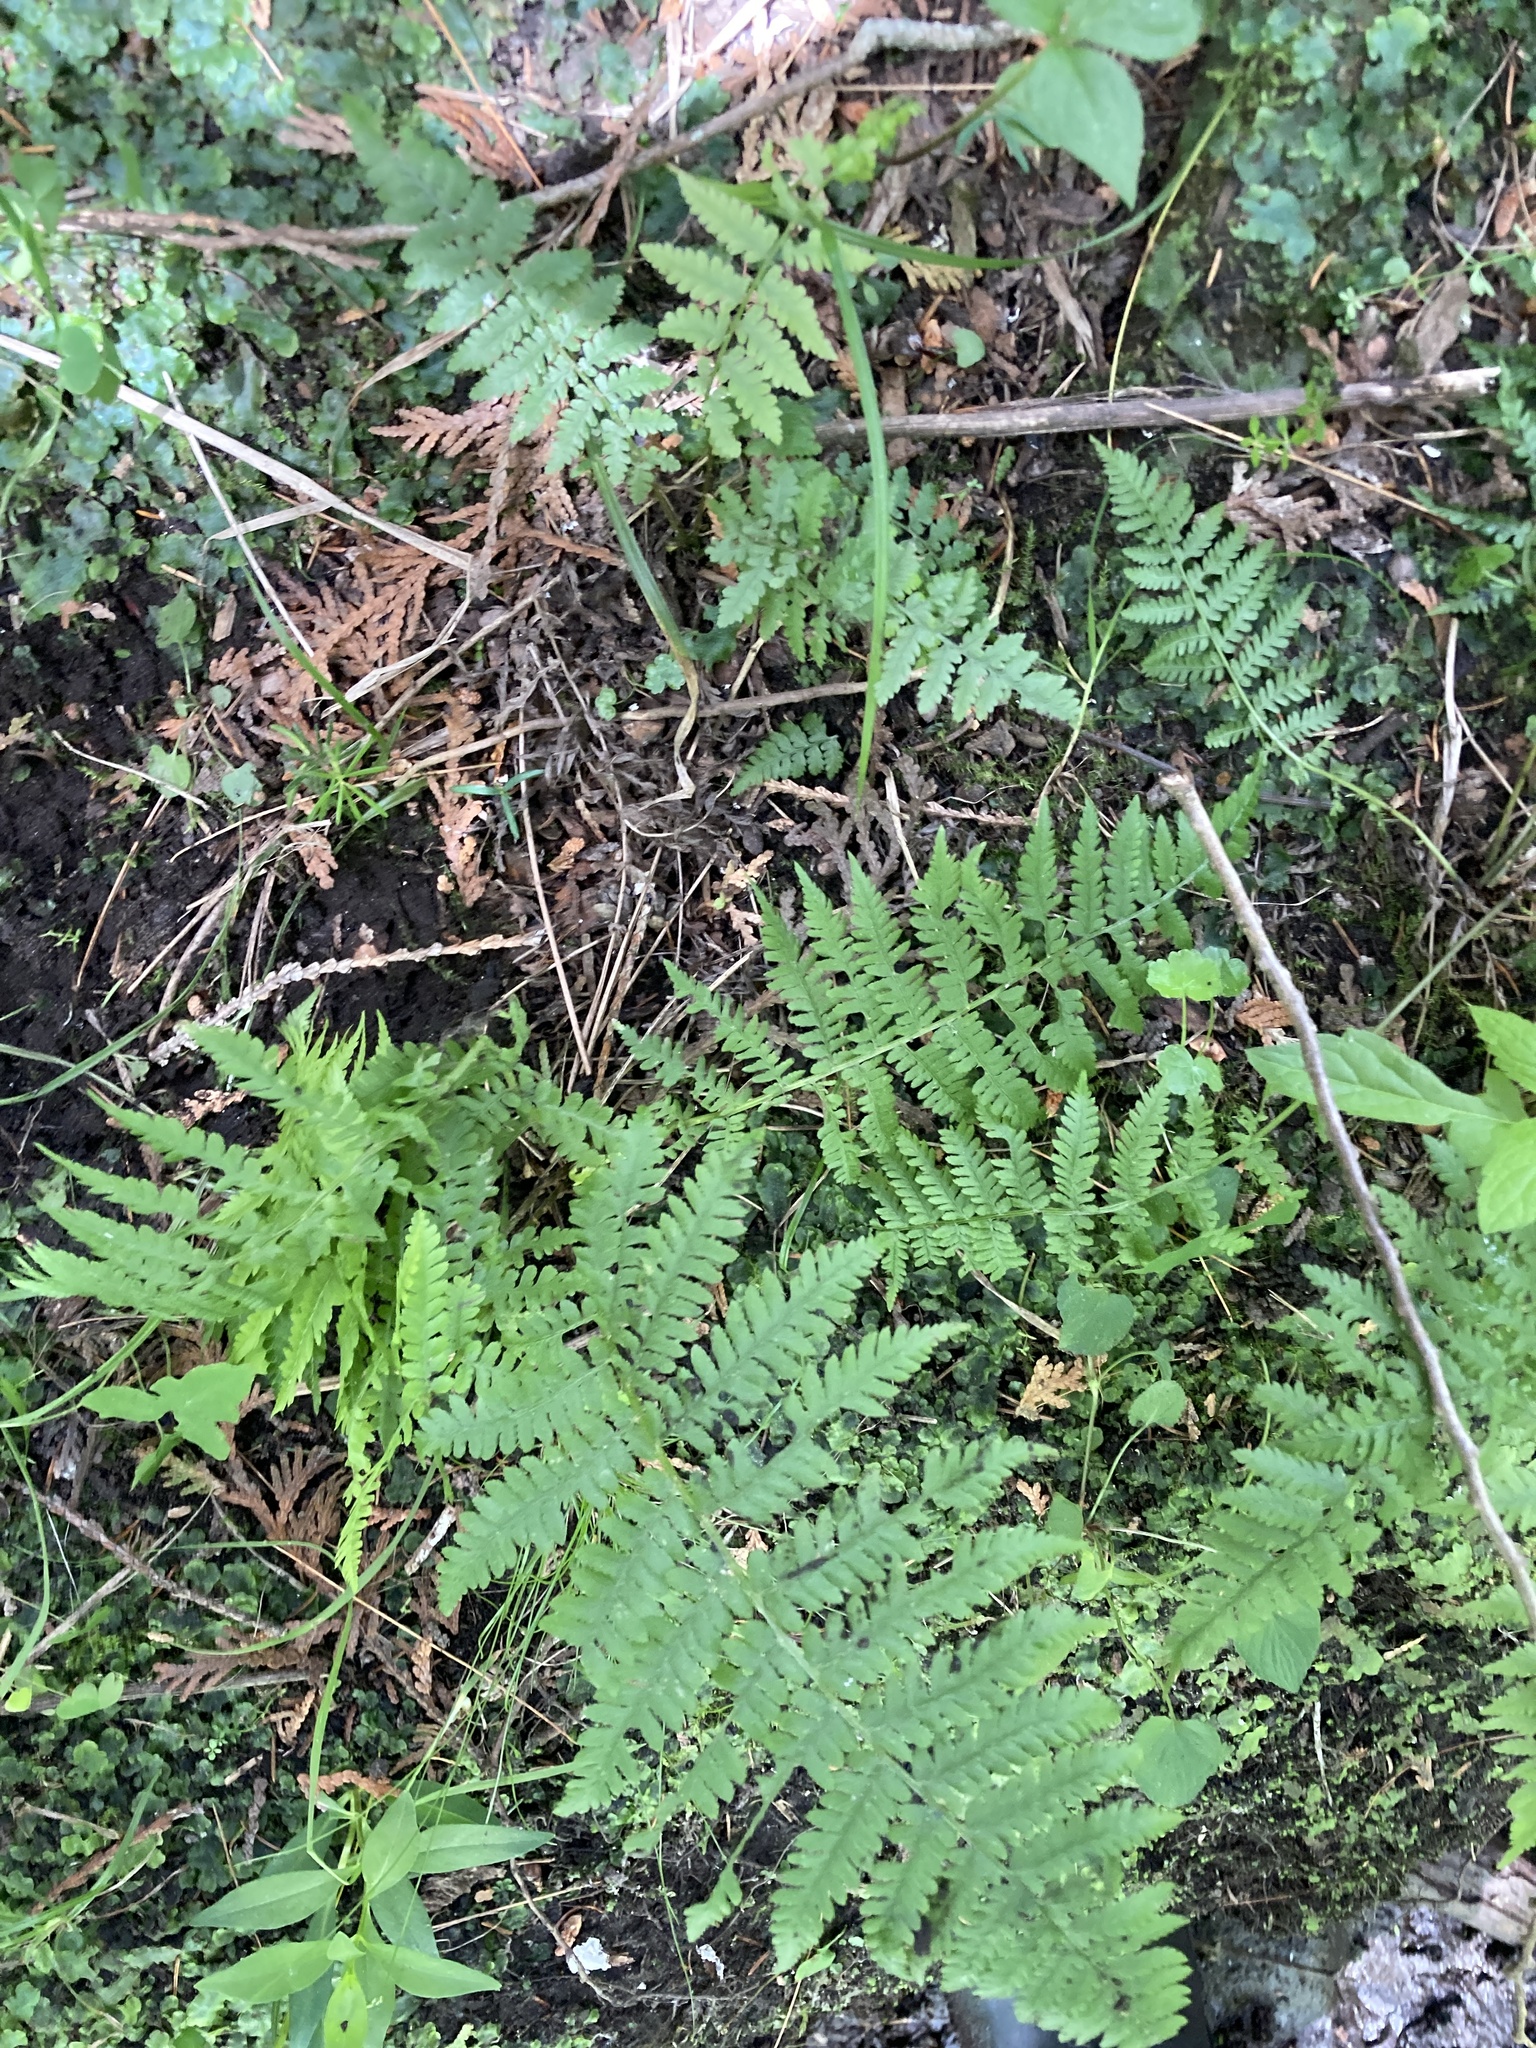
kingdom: Plantae
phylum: Tracheophyta
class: Polypodiopsida
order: Polypodiales
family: Athyriaceae
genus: Athyrium
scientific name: Athyrium angustum
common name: Northern lady fern
